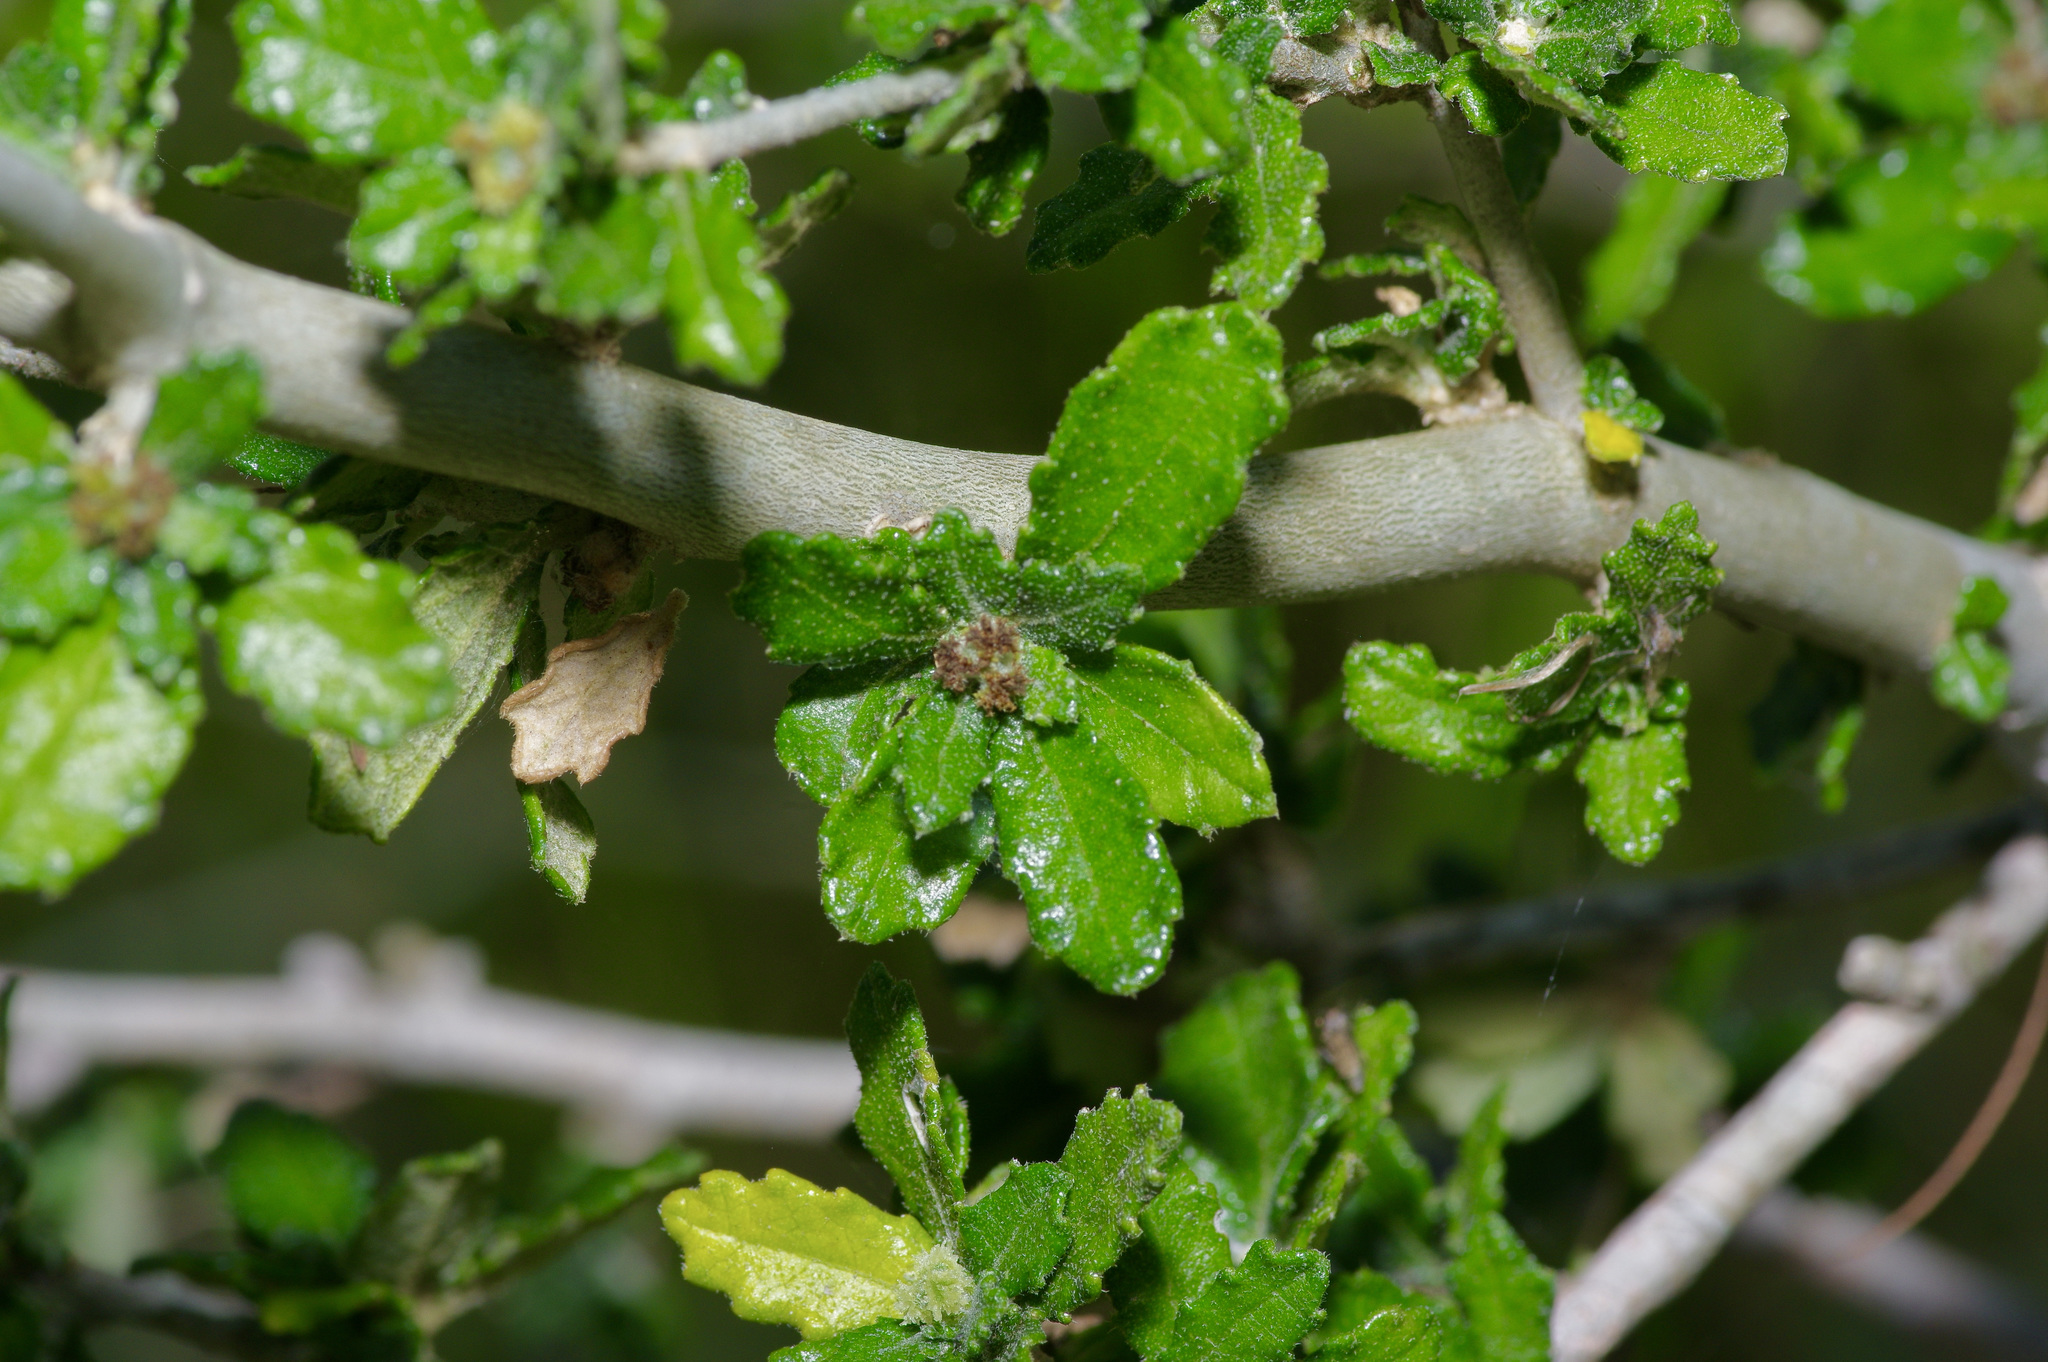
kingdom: Plantae
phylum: Tracheophyta
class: Magnoliopsida
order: Malpighiales
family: Euphorbiaceae
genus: Bernardia
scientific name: Bernardia myricifolia
